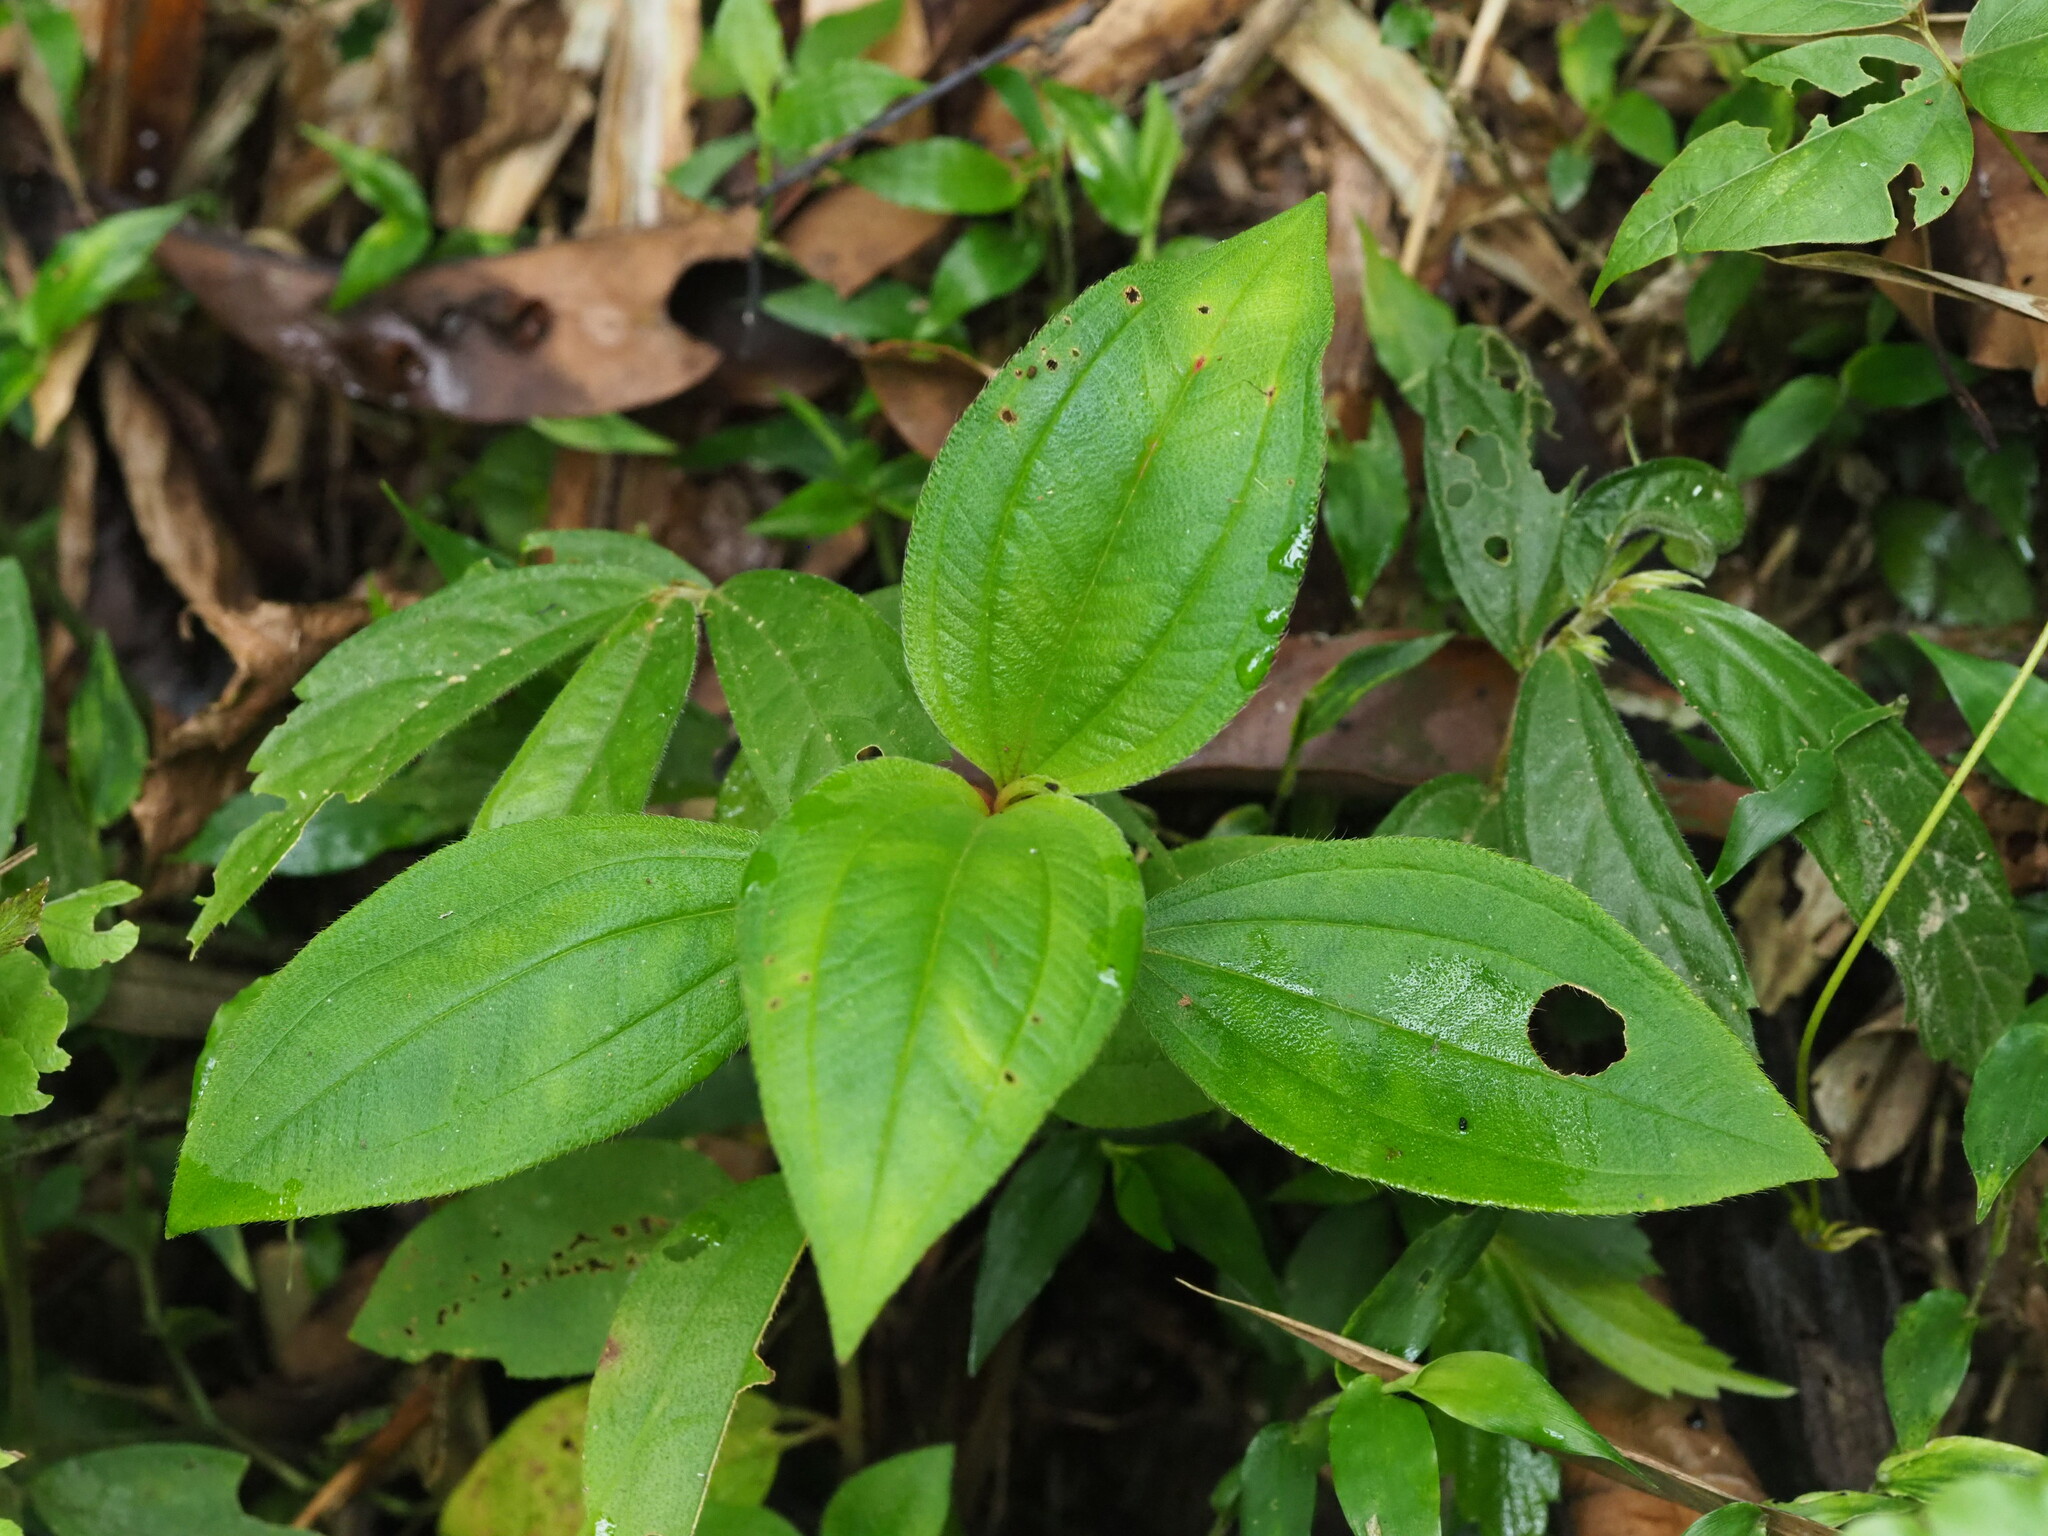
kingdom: Plantae
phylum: Tracheophyta
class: Magnoliopsida
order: Myrtales
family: Melastomataceae
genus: Melastoma
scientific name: Melastoma malabathricum
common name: Indian-rhododendron
